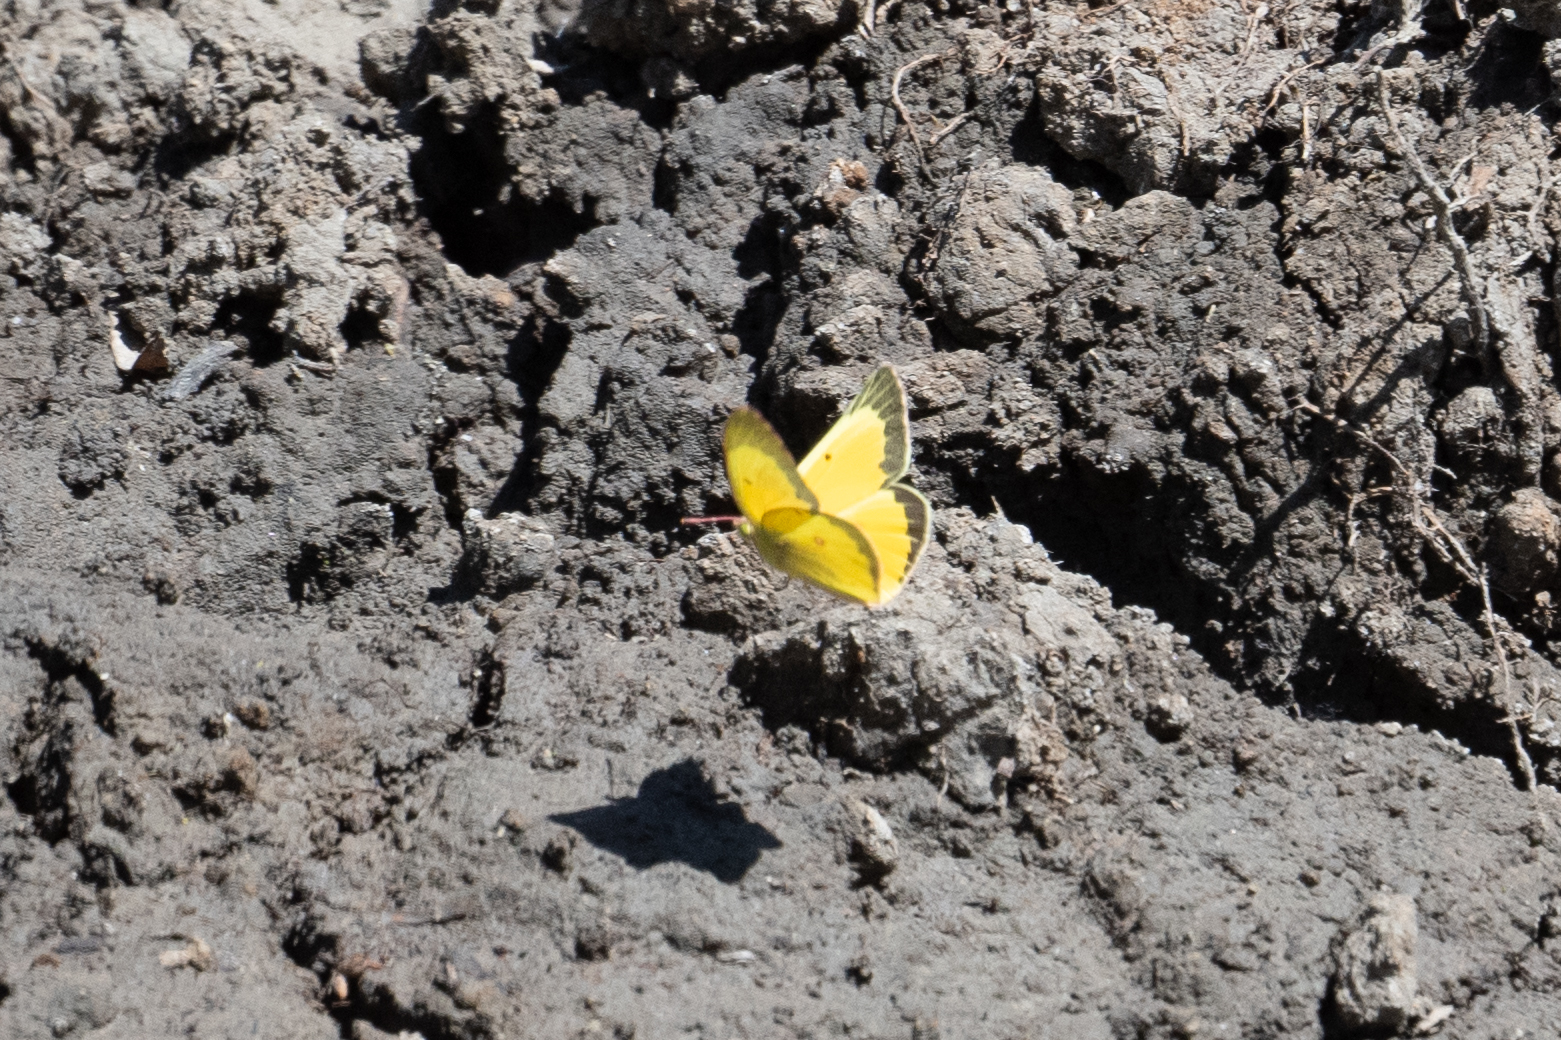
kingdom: Animalia
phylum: Arthropoda
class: Insecta
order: Lepidoptera
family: Pieridae
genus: Colias
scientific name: Colias eurytheme
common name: Alfalfa butterfly
